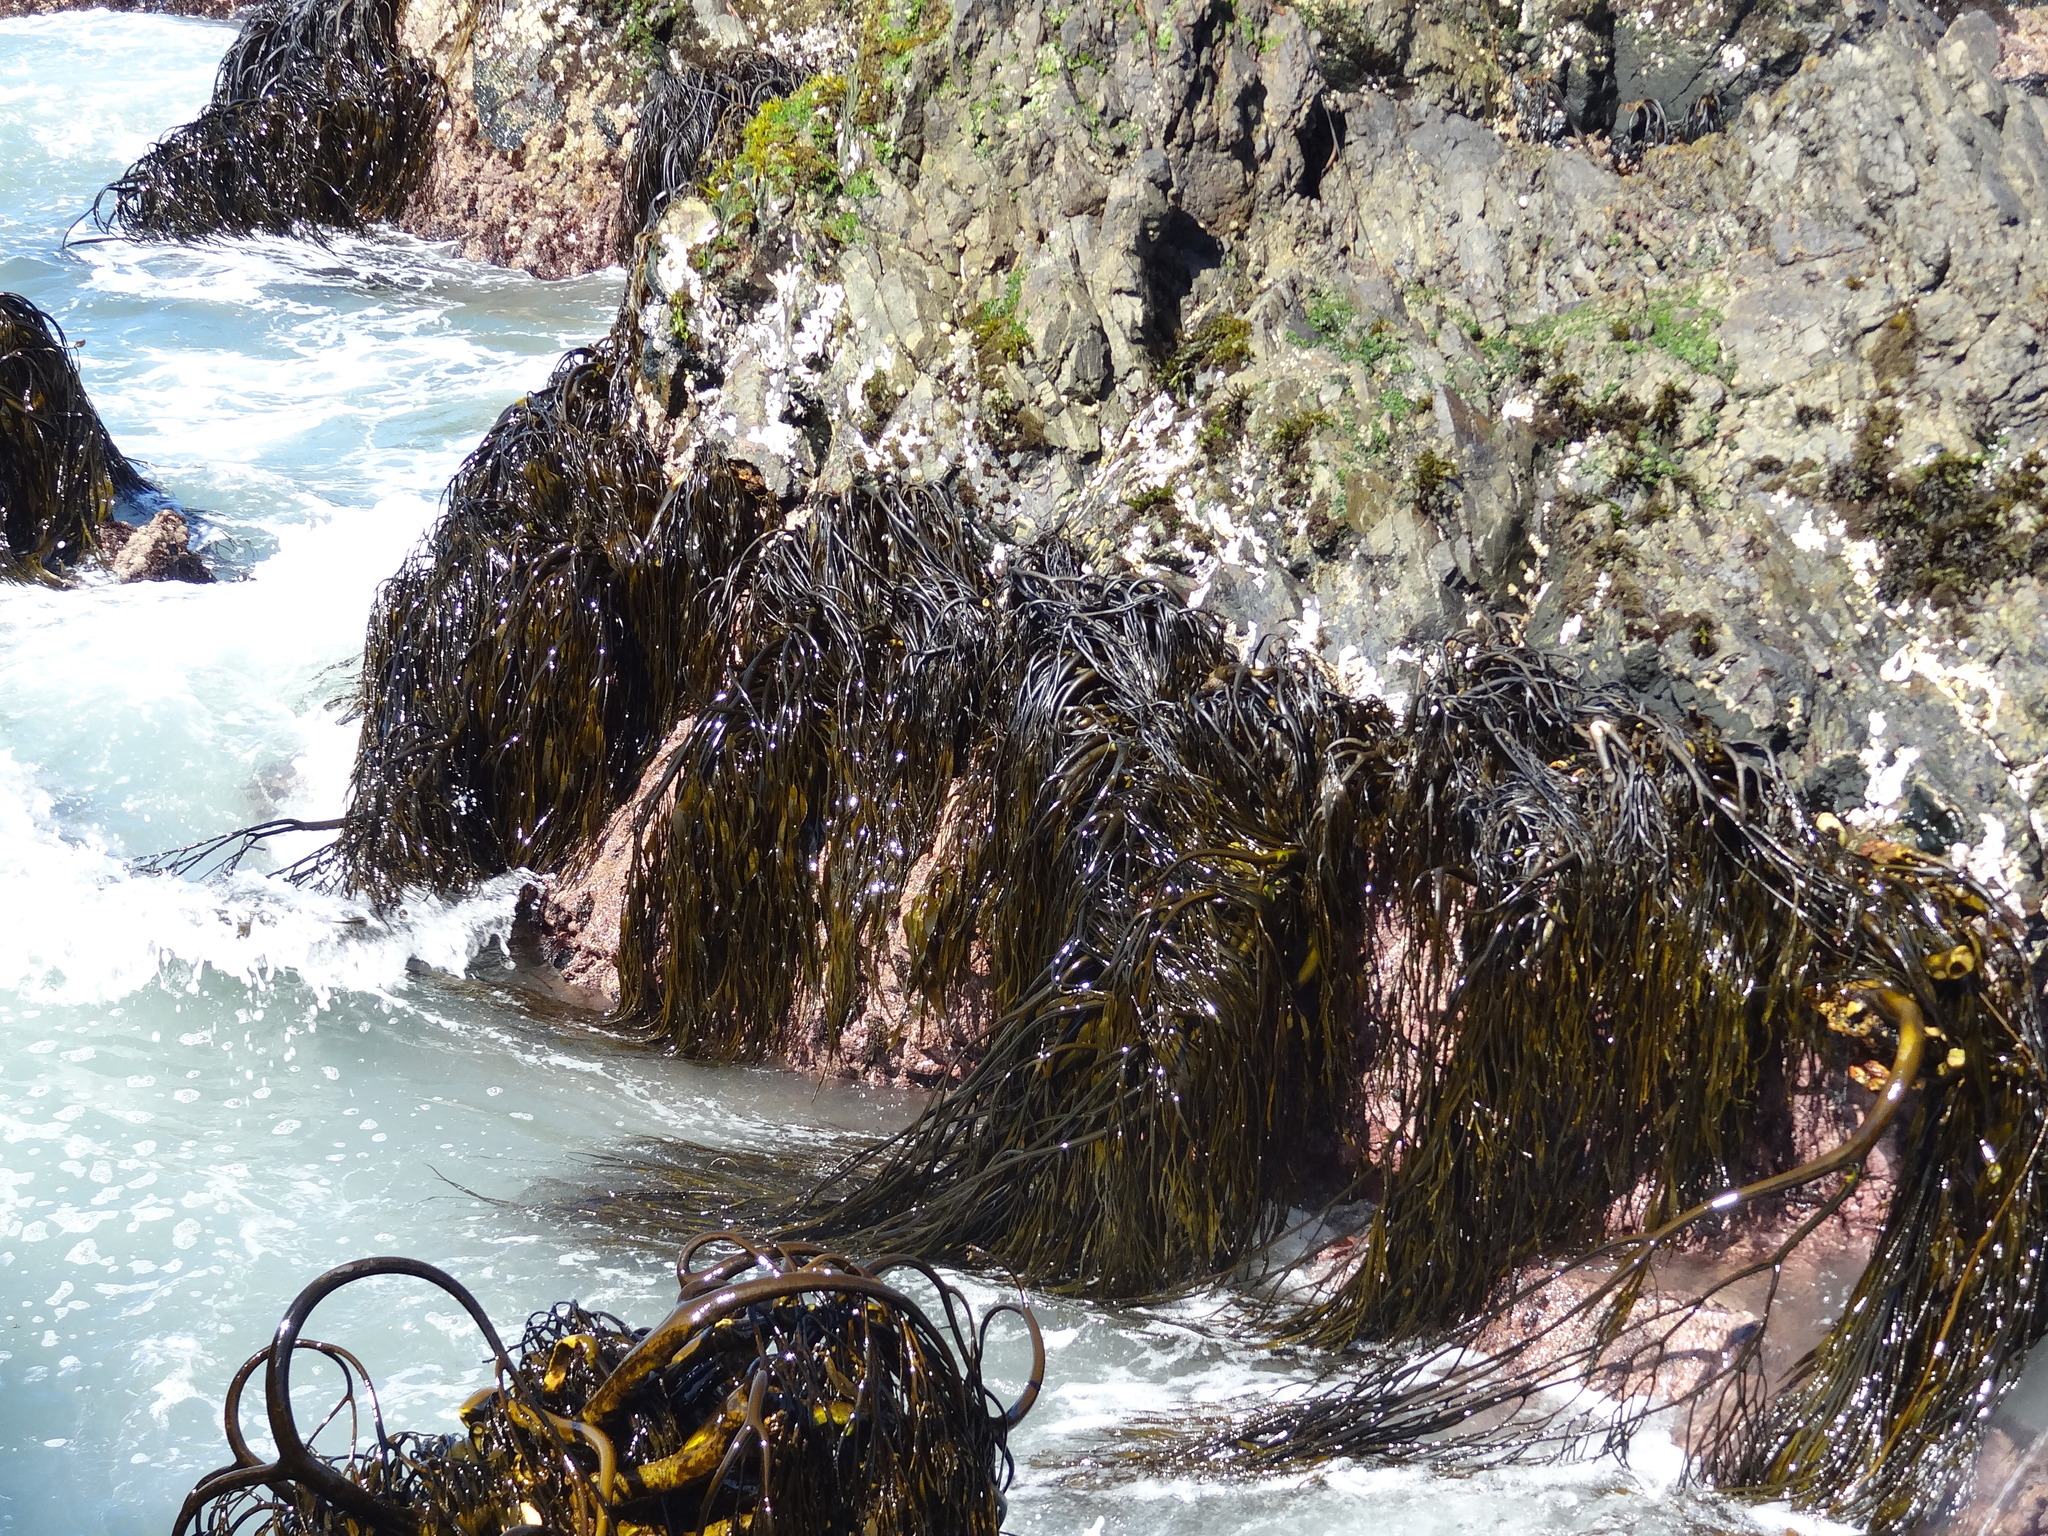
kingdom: Chromista
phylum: Ochrophyta
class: Phaeophyceae
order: Laminariales
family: Lessoniaceae
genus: Lessonia
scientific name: Lessonia spicata
